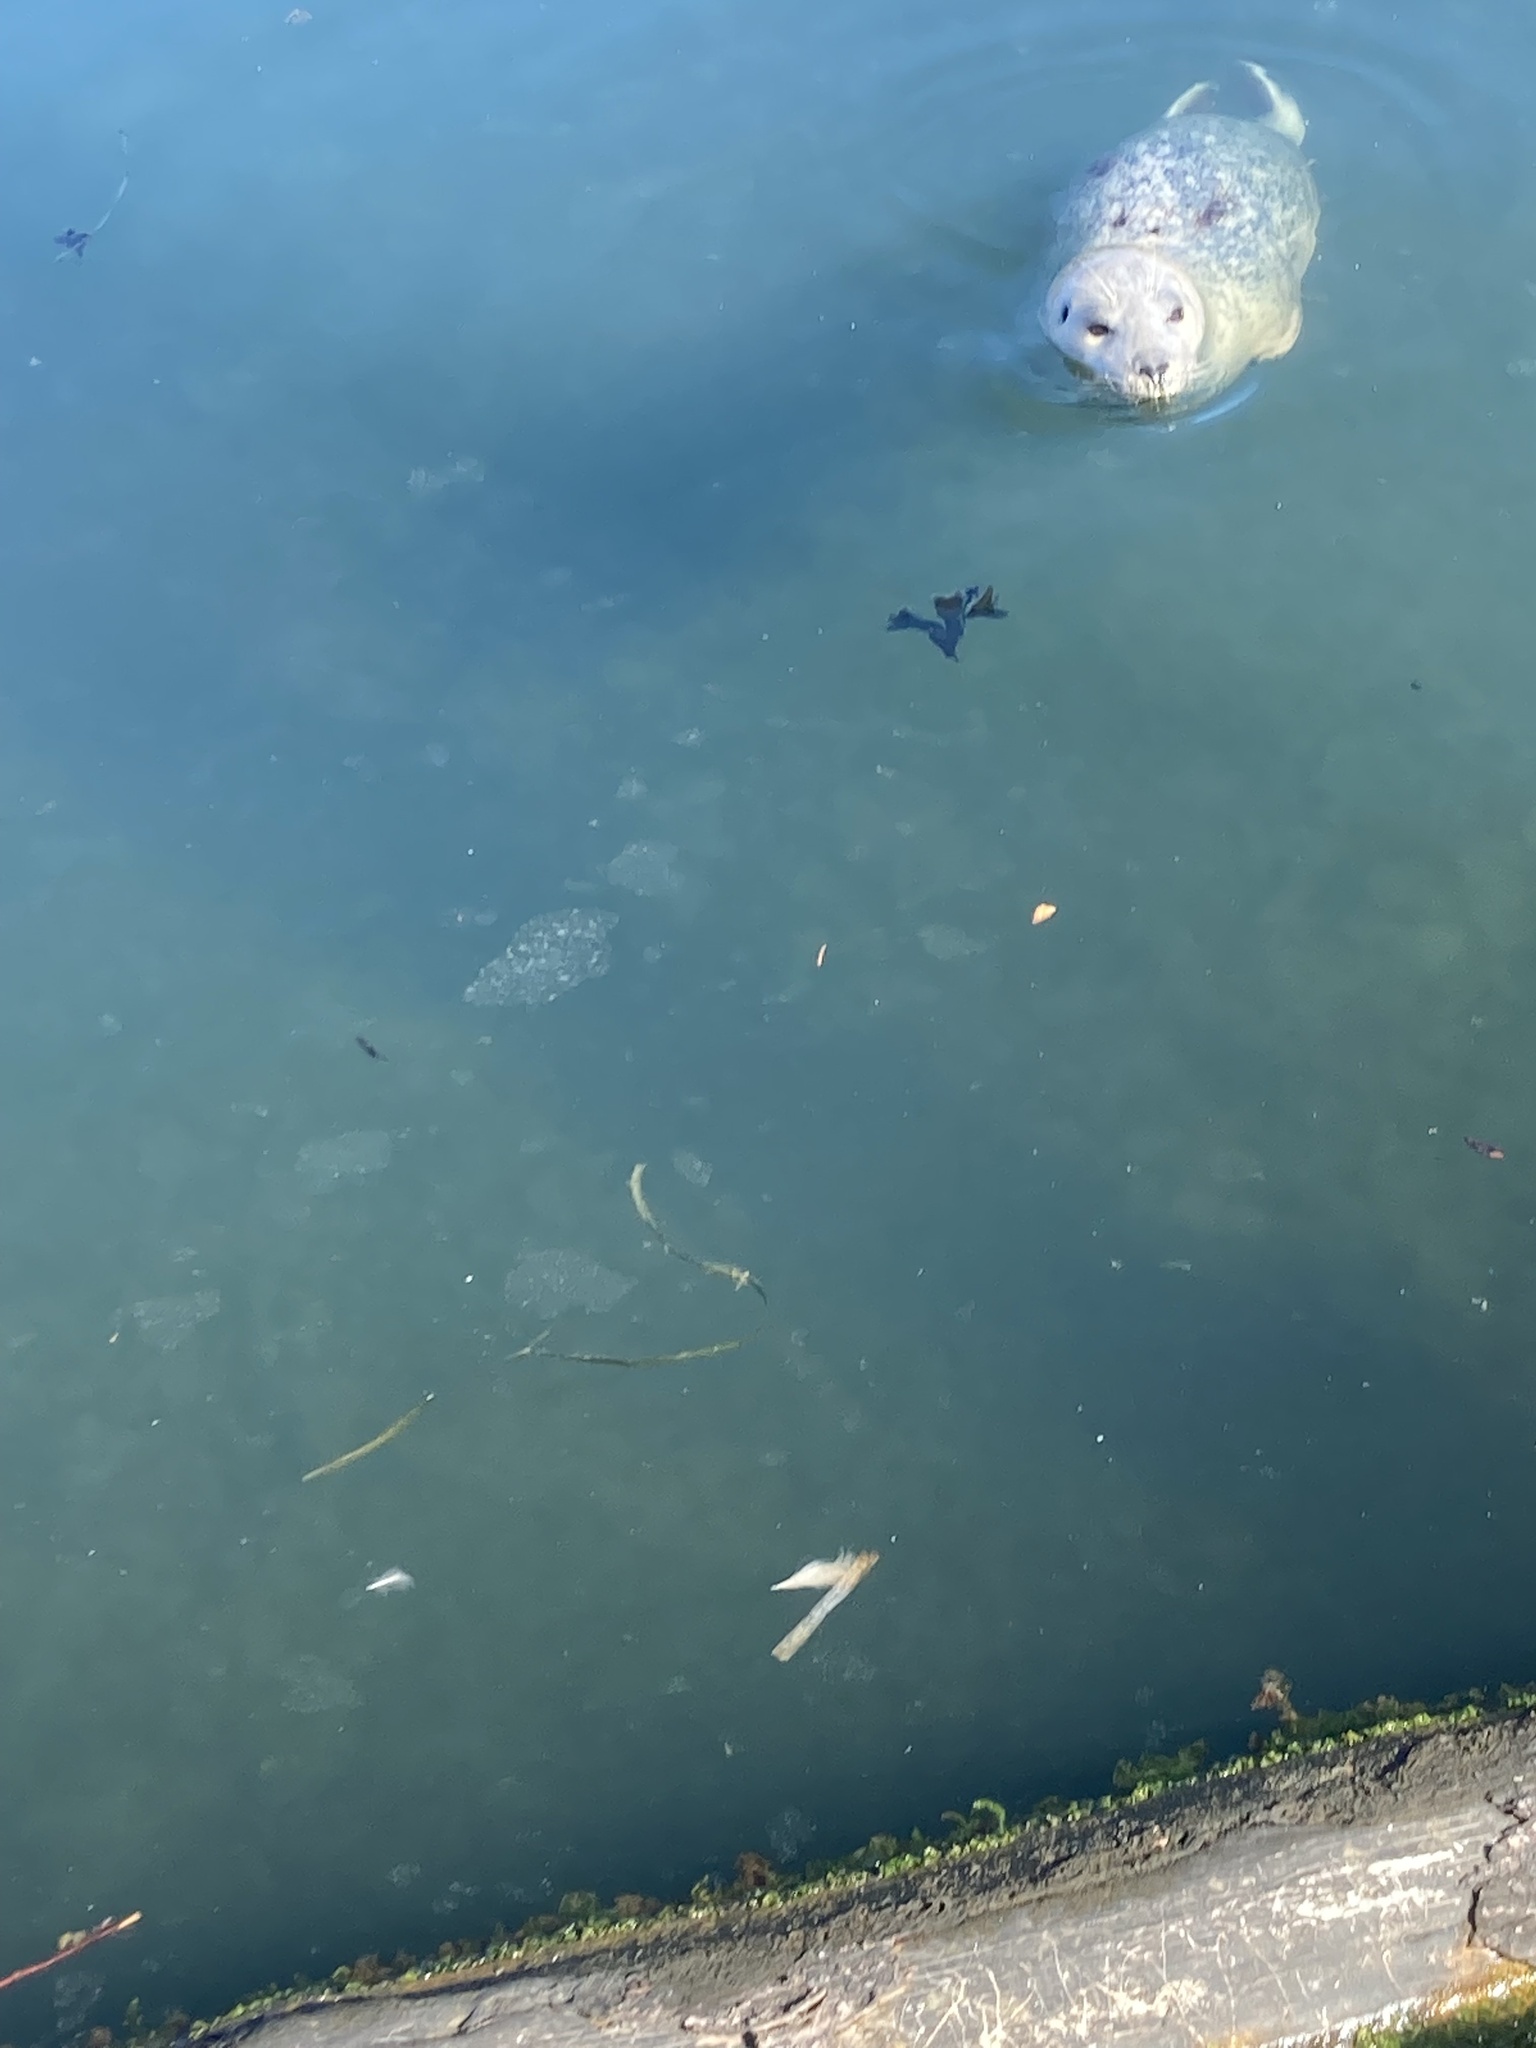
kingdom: Animalia
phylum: Chordata
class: Mammalia
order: Carnivora
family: Phocidae
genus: Phoca
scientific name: Phoca vitulina
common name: Harbor seal
